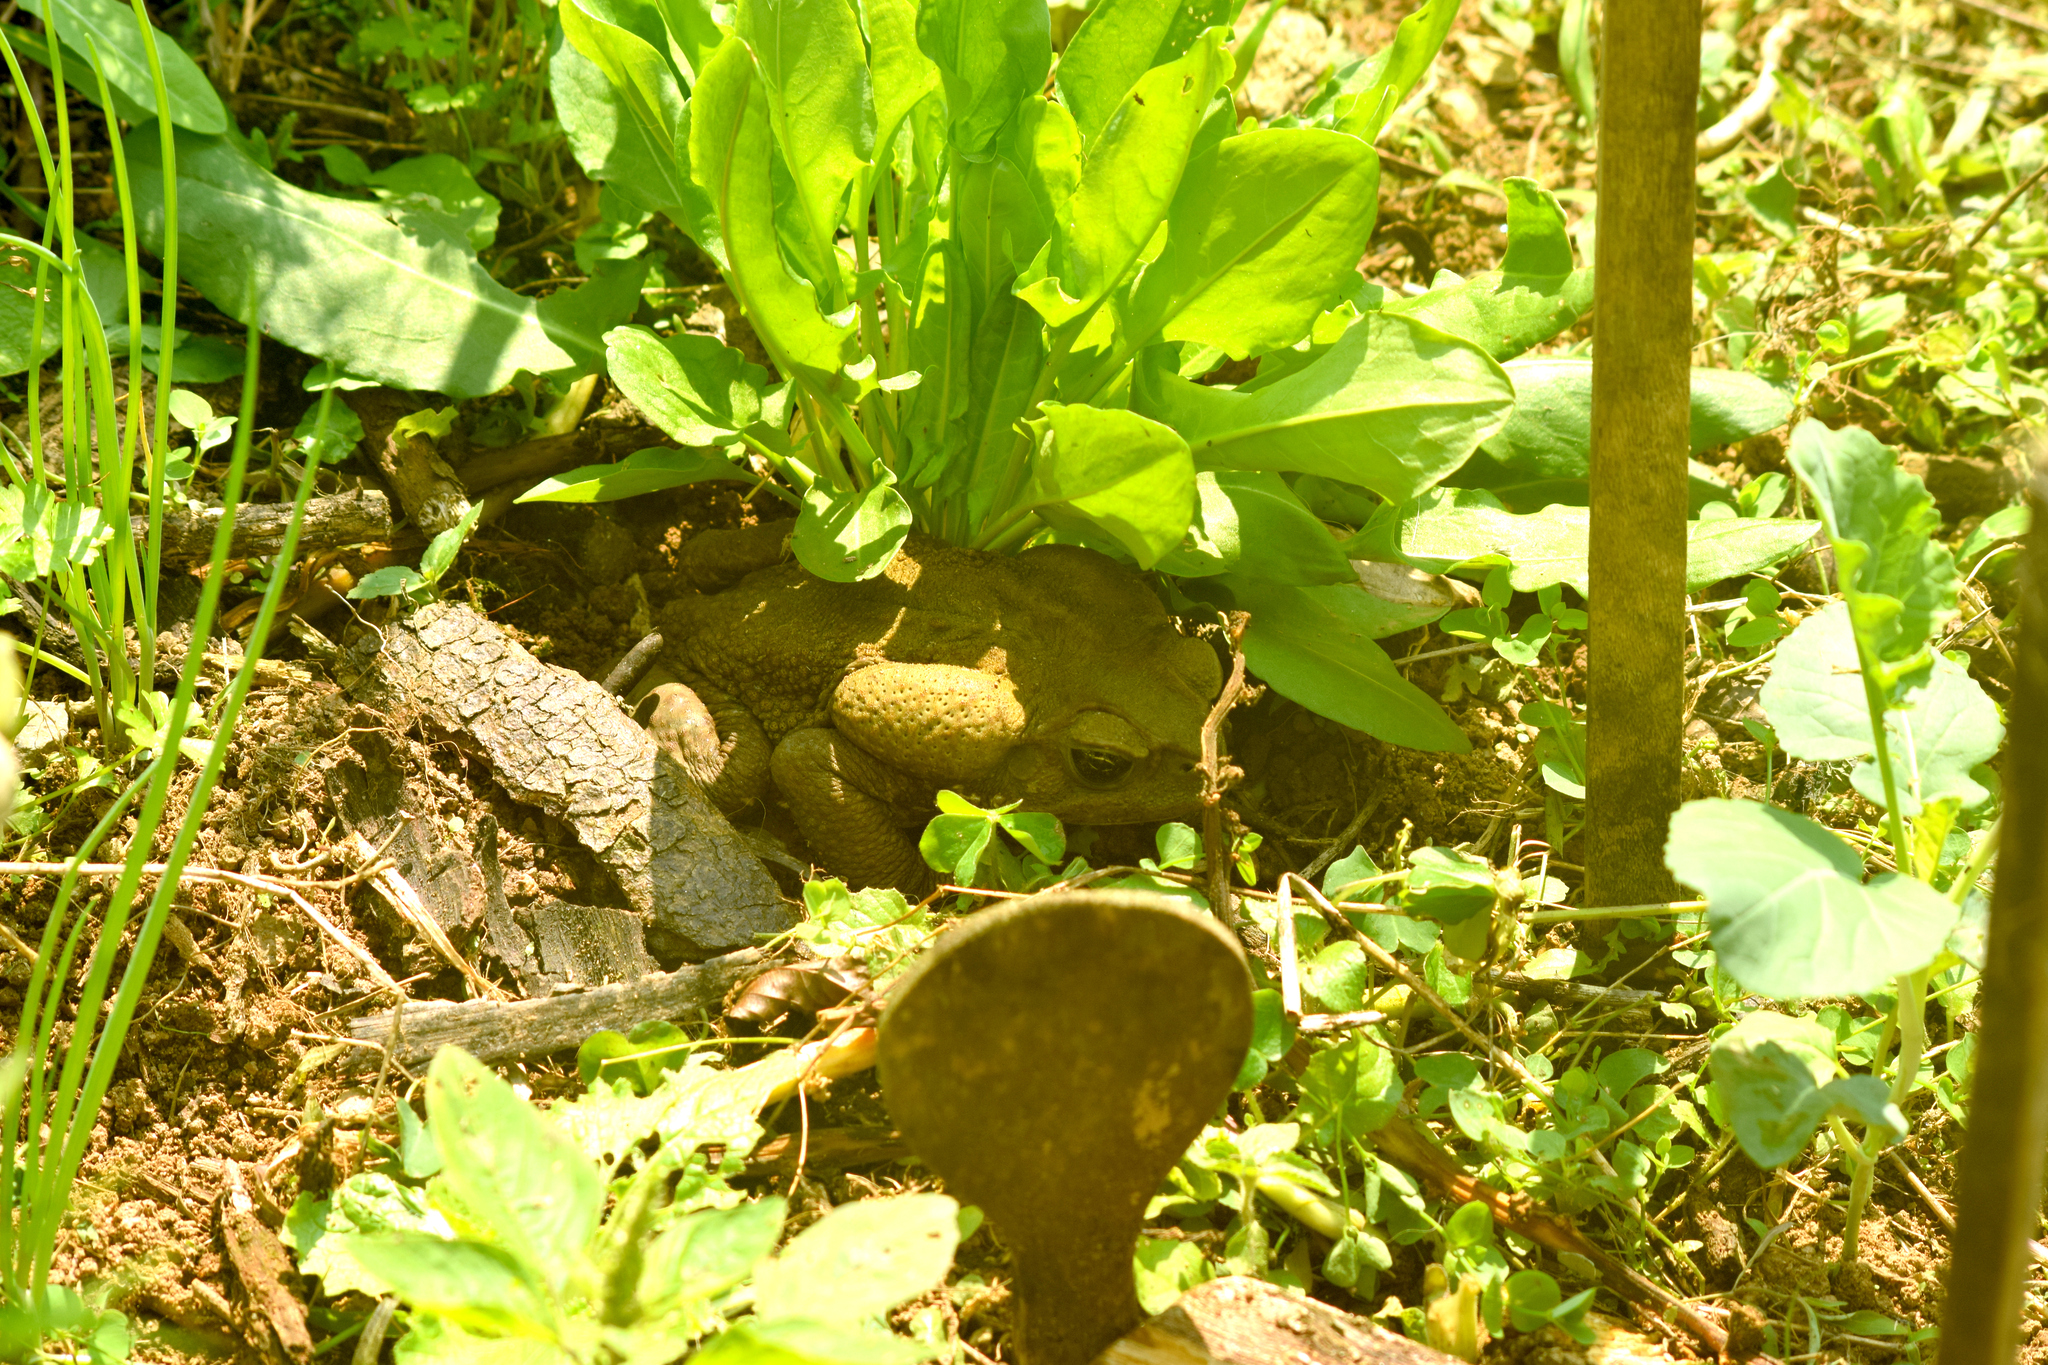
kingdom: Animalia
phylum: Chordata
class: Amphibia
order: Anura
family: Bufonidae
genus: Rhinella
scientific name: Rhinella icterica
